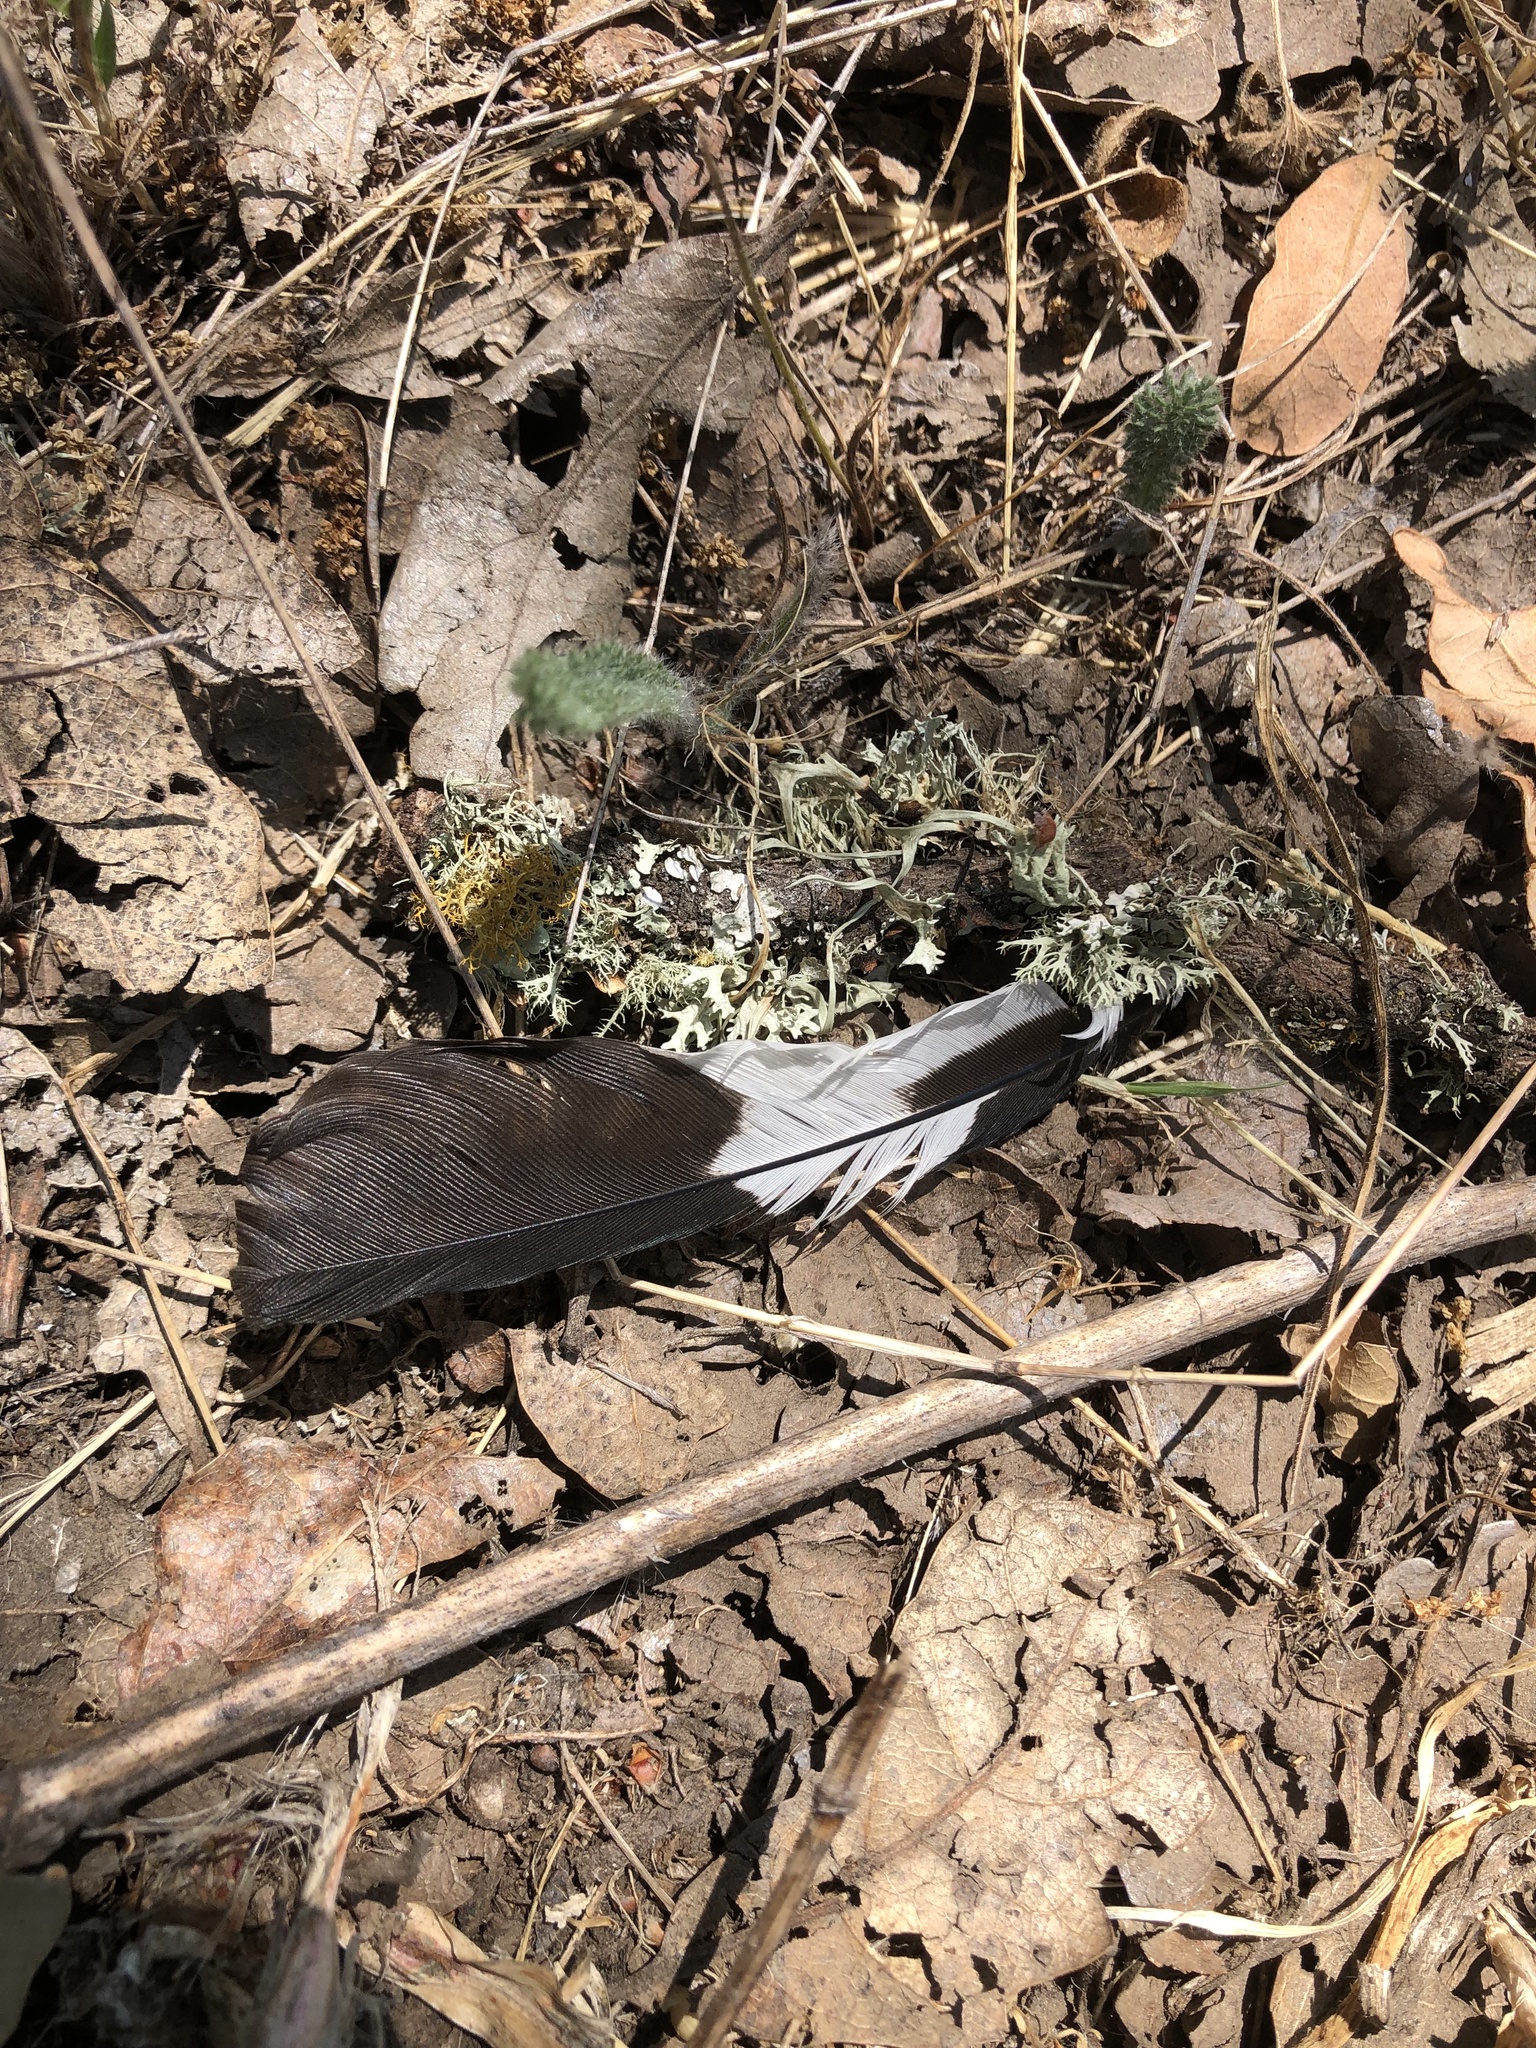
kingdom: Animalia
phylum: Chordata
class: Aves
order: Piciformes
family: Picidae
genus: Melanerpes
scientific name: Melanerpes formicivorus
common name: Acorn woodpecker
